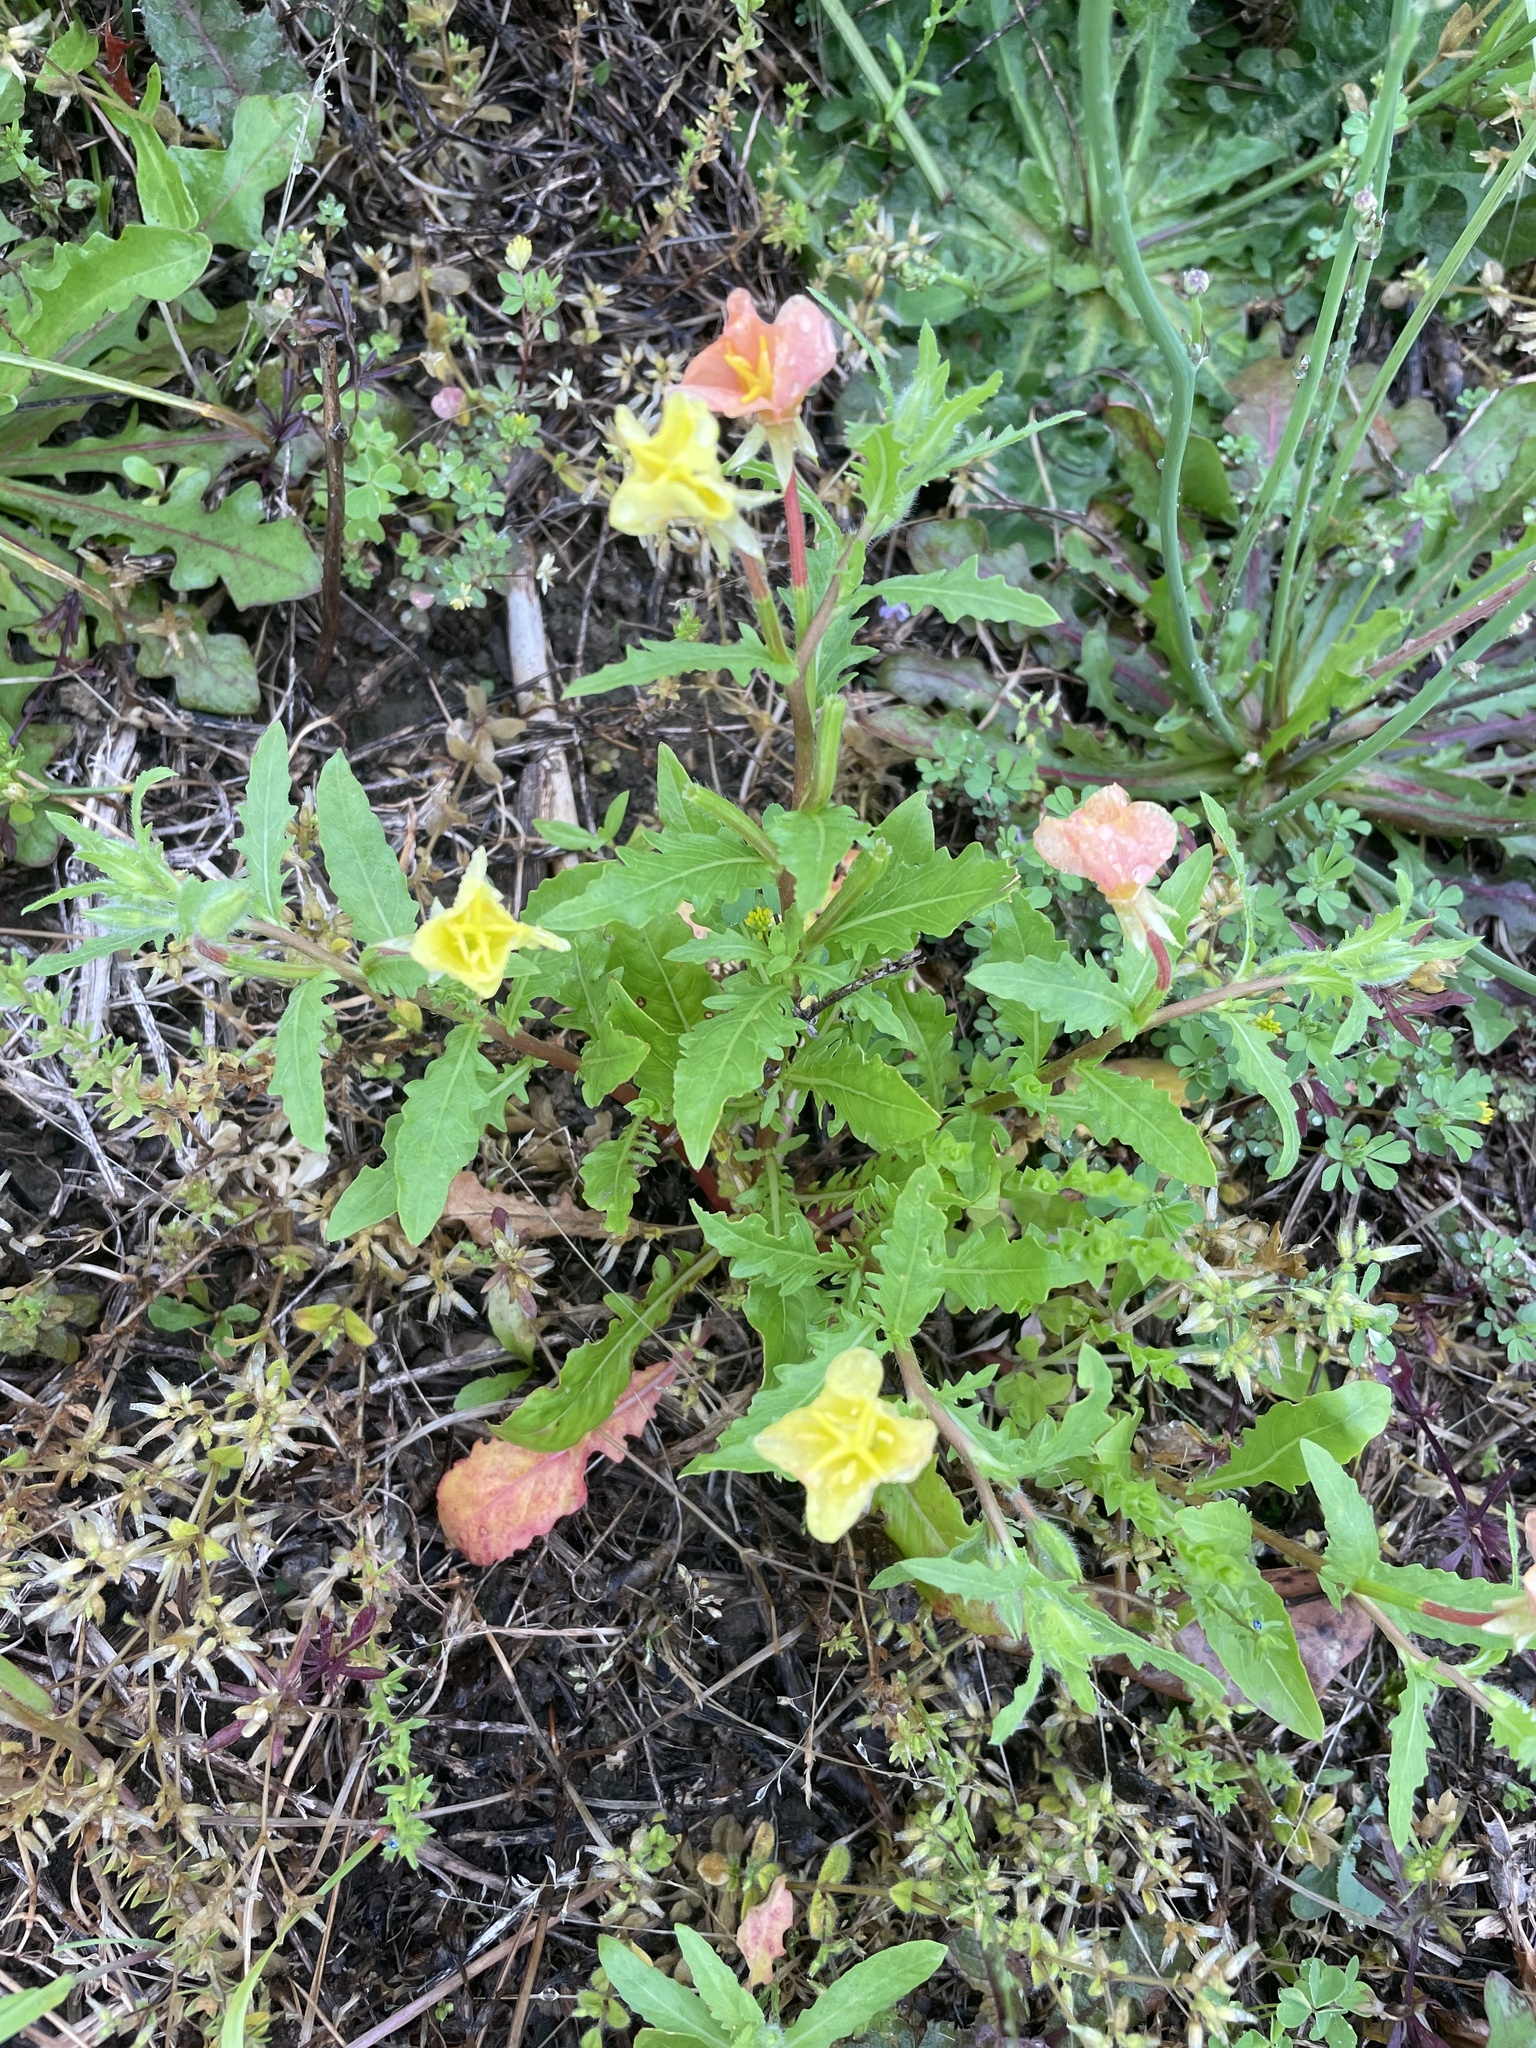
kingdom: Plantae
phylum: Tracheophyta
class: Magnoliopsida
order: Myrtales
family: Onagraceae
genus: Oenothera
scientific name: Oenothera laciniata
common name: Cut-leaved evening-primrose
